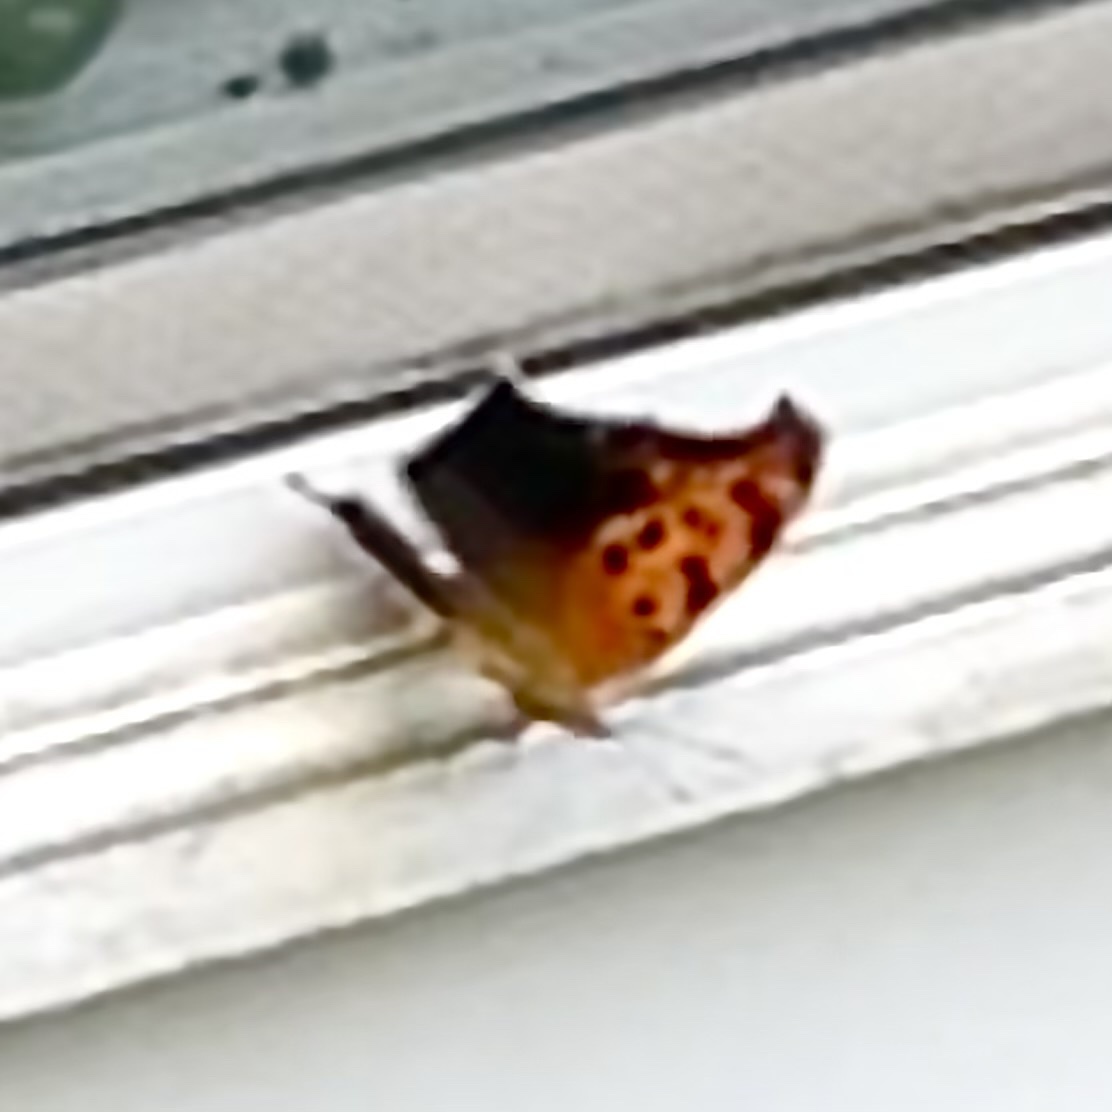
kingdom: Animalia
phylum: Arthropoda
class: Insecta
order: Lepidoptera
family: Nymphalidae
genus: Polygonia
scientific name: Polygonia interrogationis
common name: Question mark
